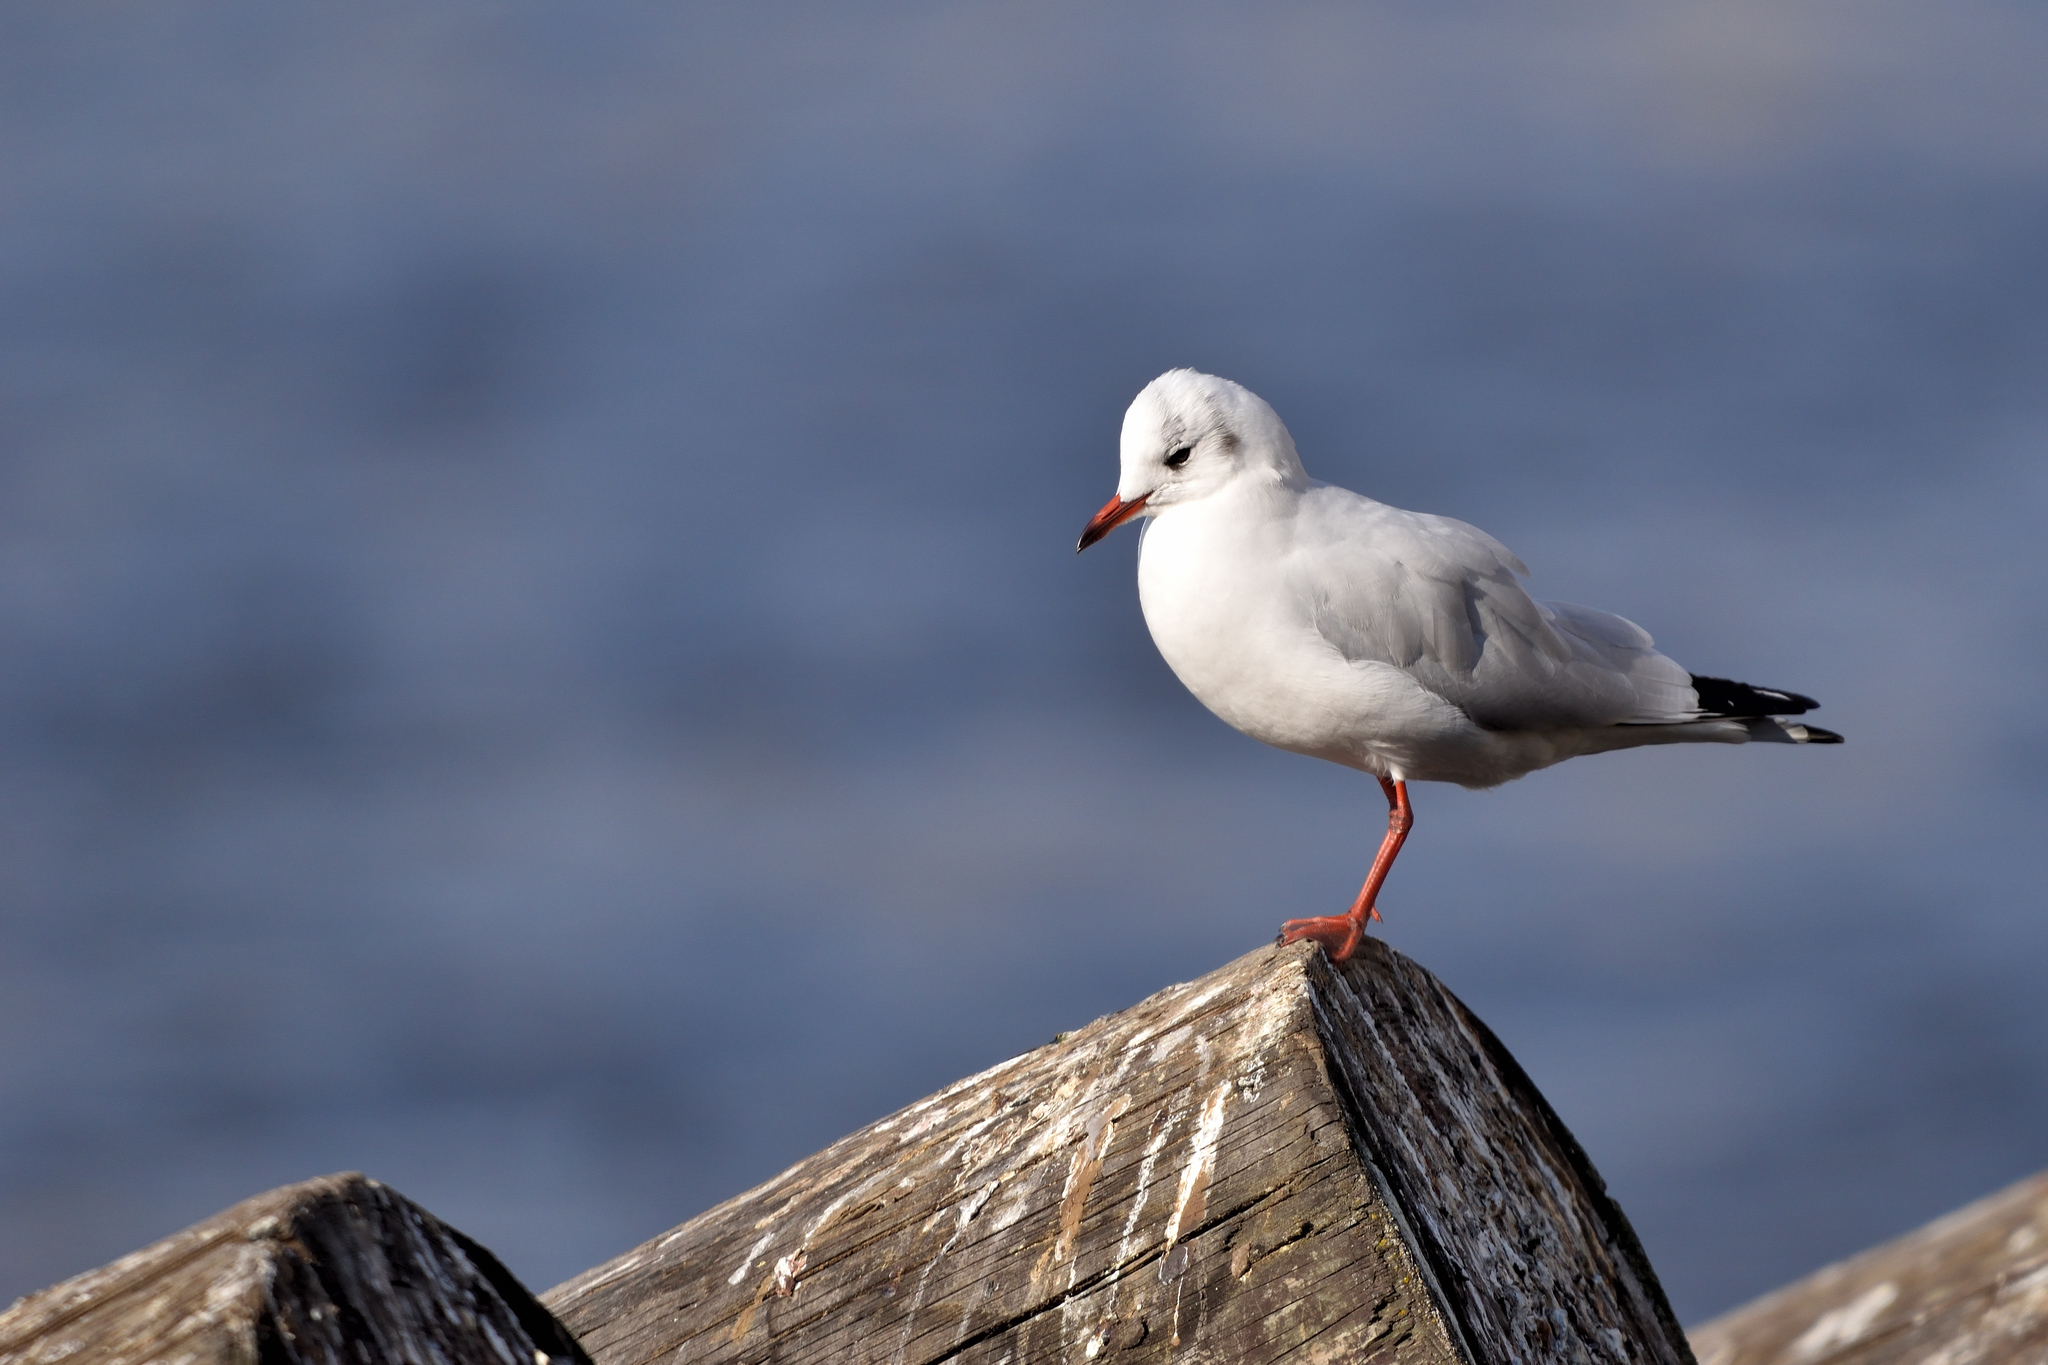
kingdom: Animalia
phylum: Chordata
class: Aves
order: Charadriiformes
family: Laridae
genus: Chroicocephalus
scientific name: Chroicocephalus ridibundus
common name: Black-headed gull
